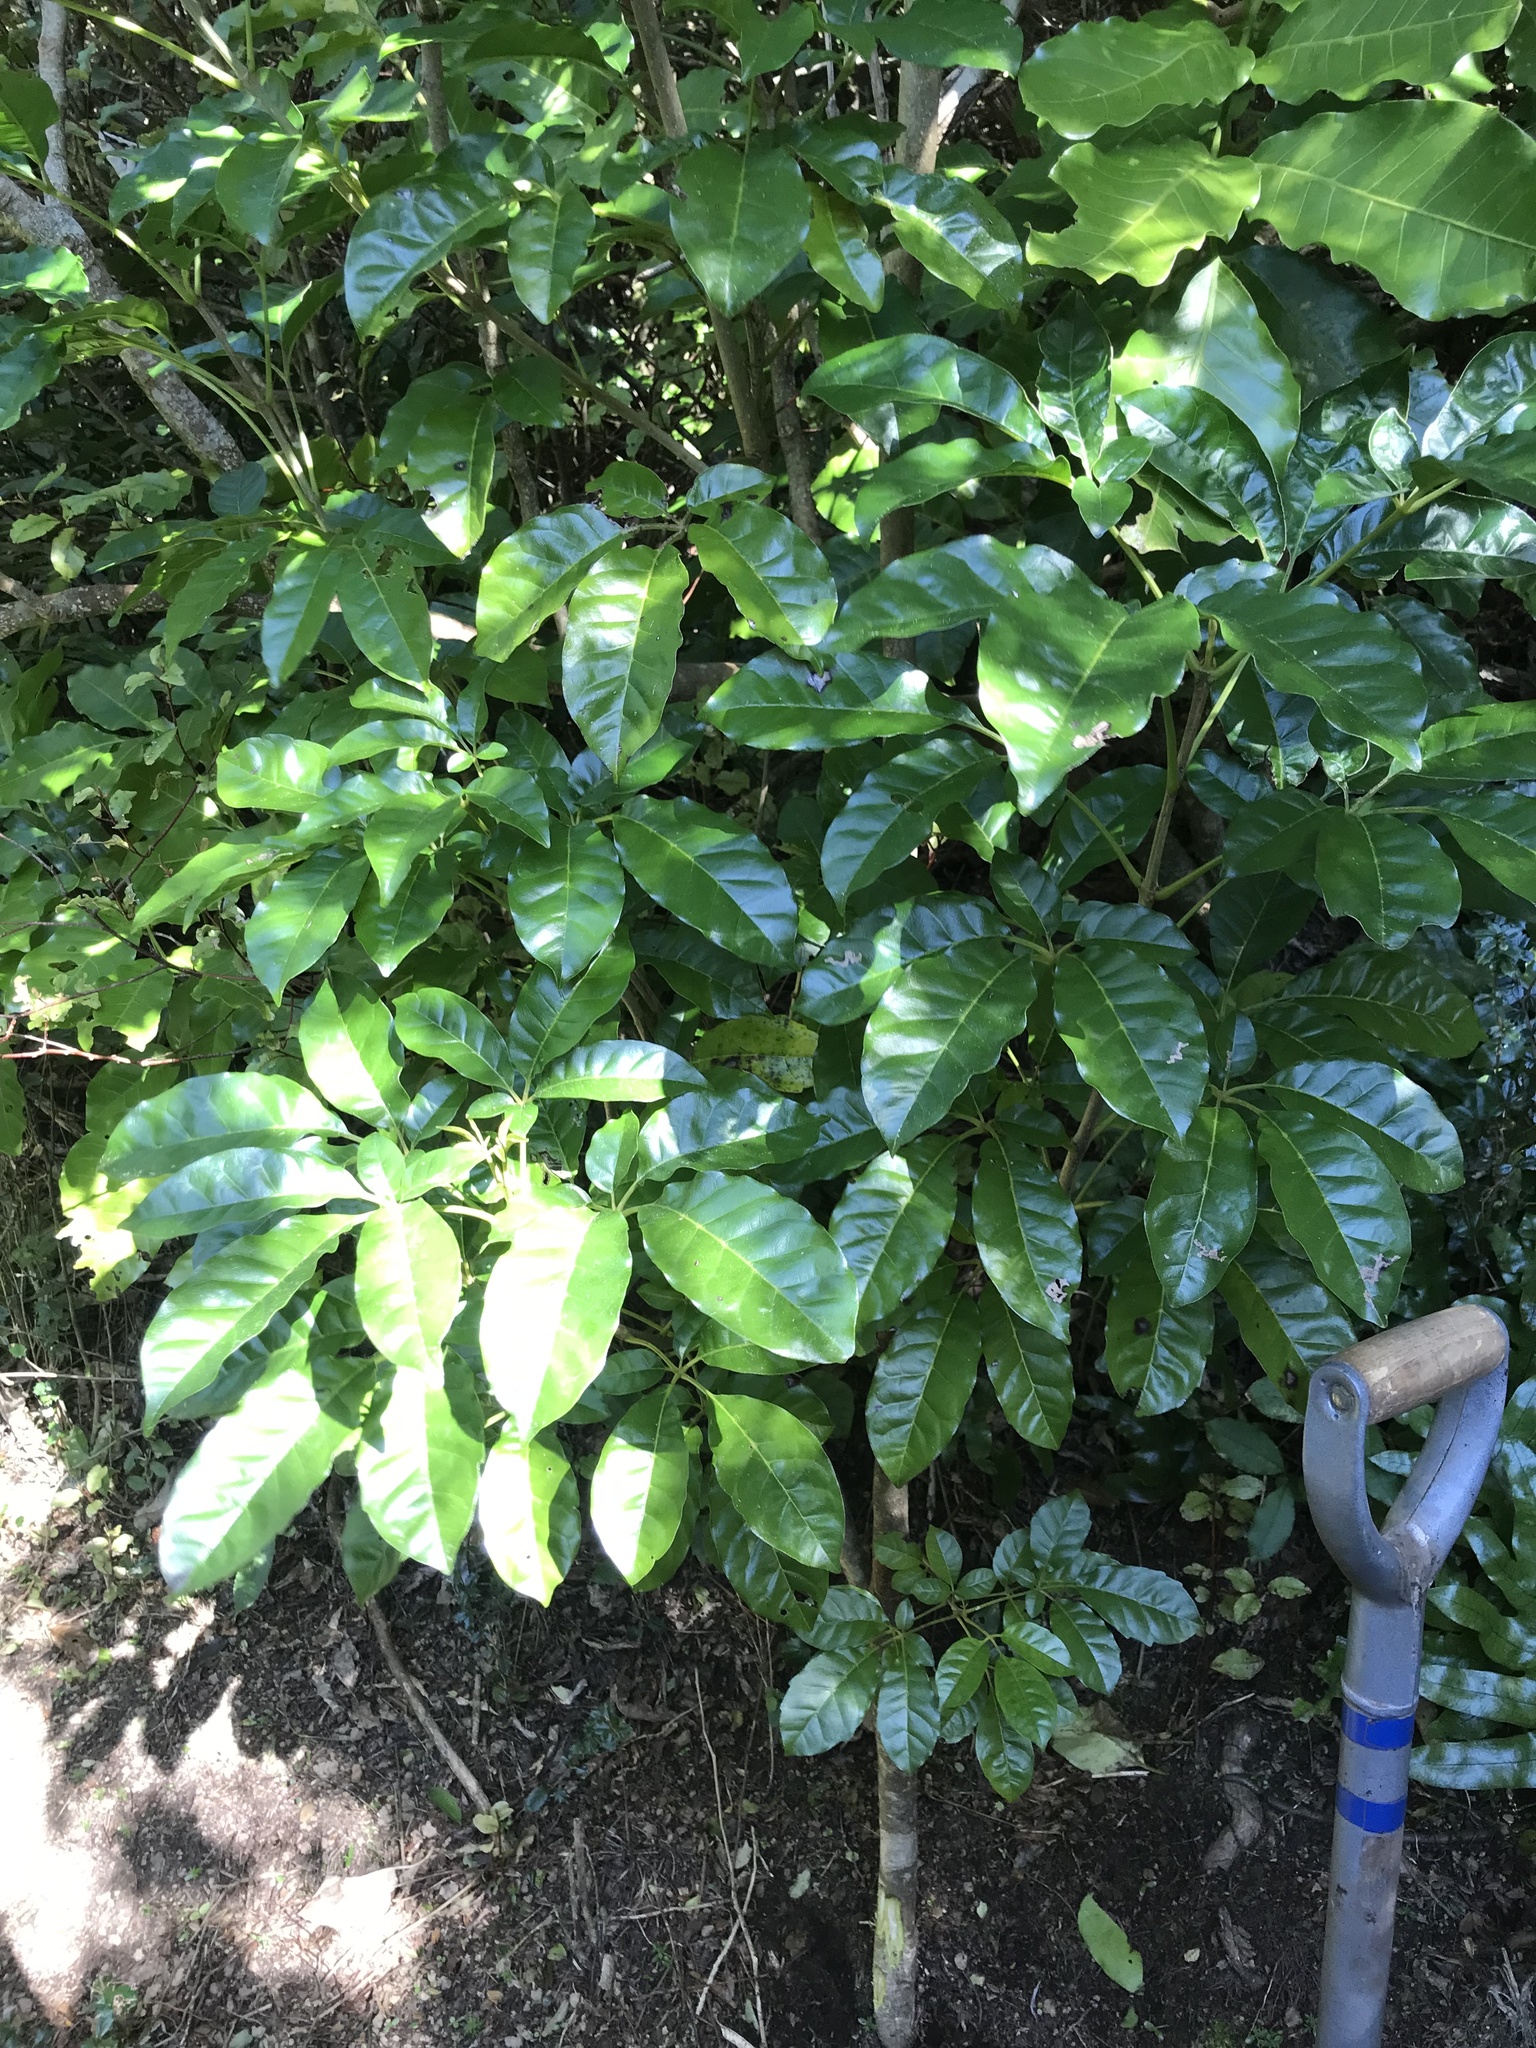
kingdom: Plantae
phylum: Tracheophyta
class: Magnoliopsida
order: Lamiales
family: Lamiaceae
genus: Vitex
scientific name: Vitex lucens
